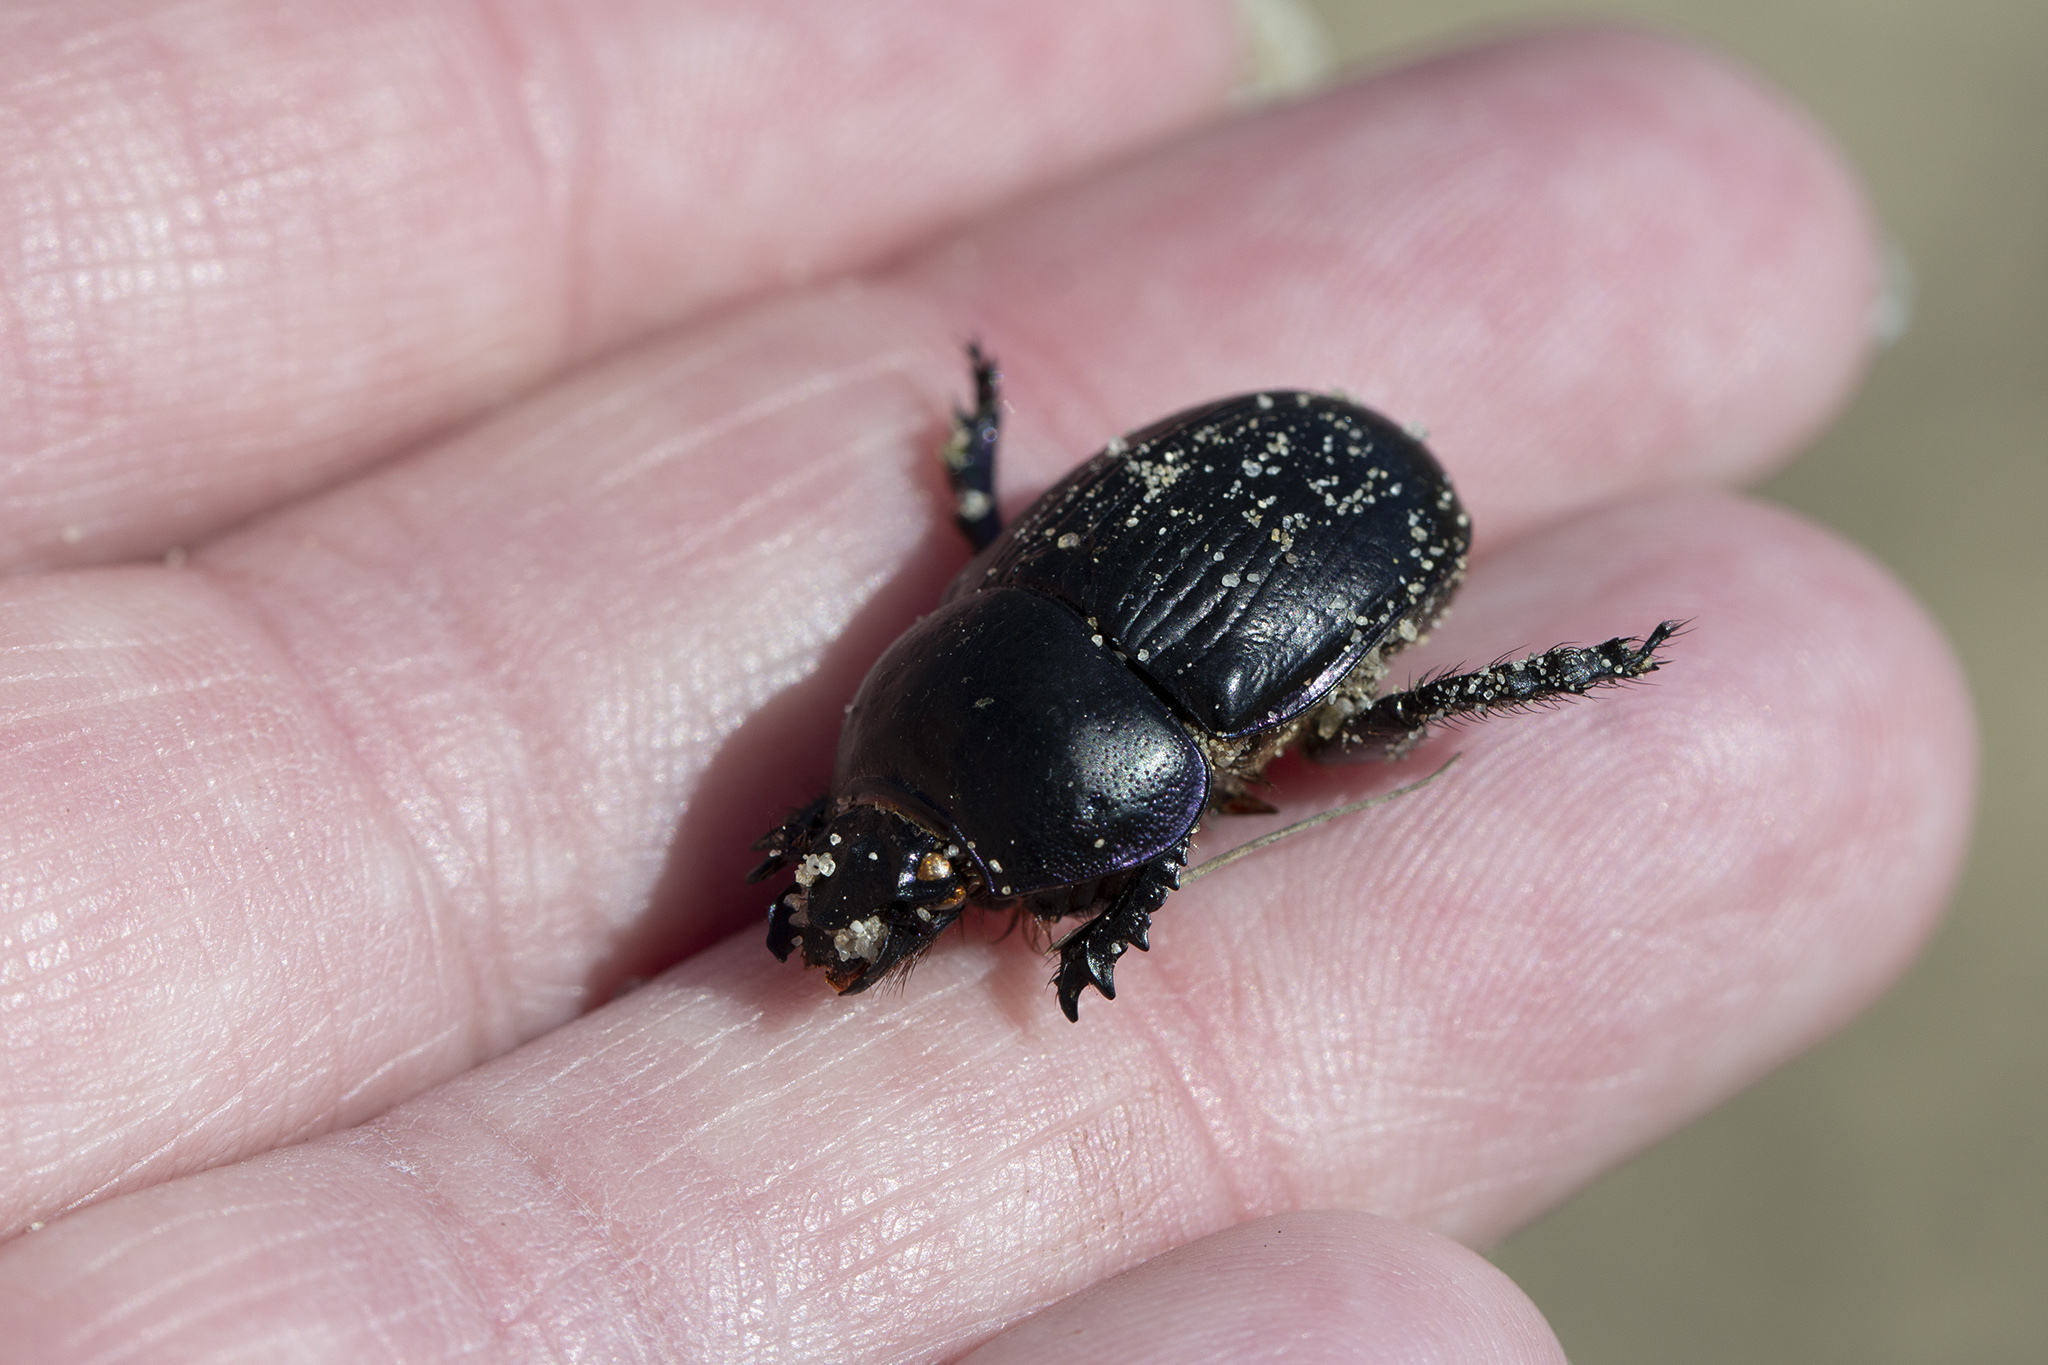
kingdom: Animalia
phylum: Arthropoda
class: Insecta
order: Coleoptera
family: Geotrupidae
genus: Geotrupes
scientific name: Geotrupes spiniger
